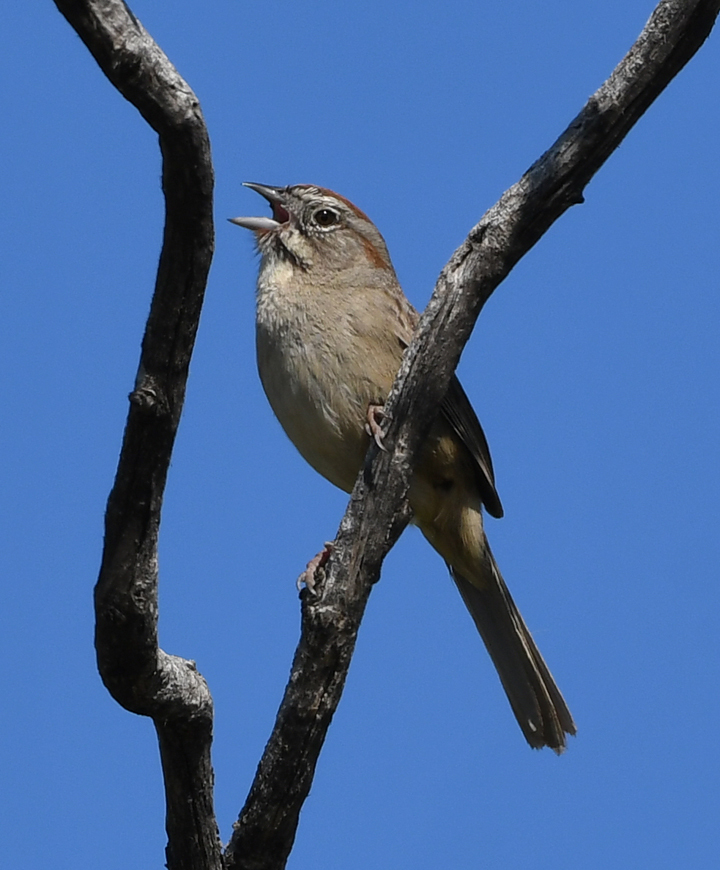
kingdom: Animalia
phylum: Chordata
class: Aves
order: Passeriformes
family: Passerellidae
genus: Aimophila
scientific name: Aimophila ruficeps
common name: Rufous-crowned sparrow
